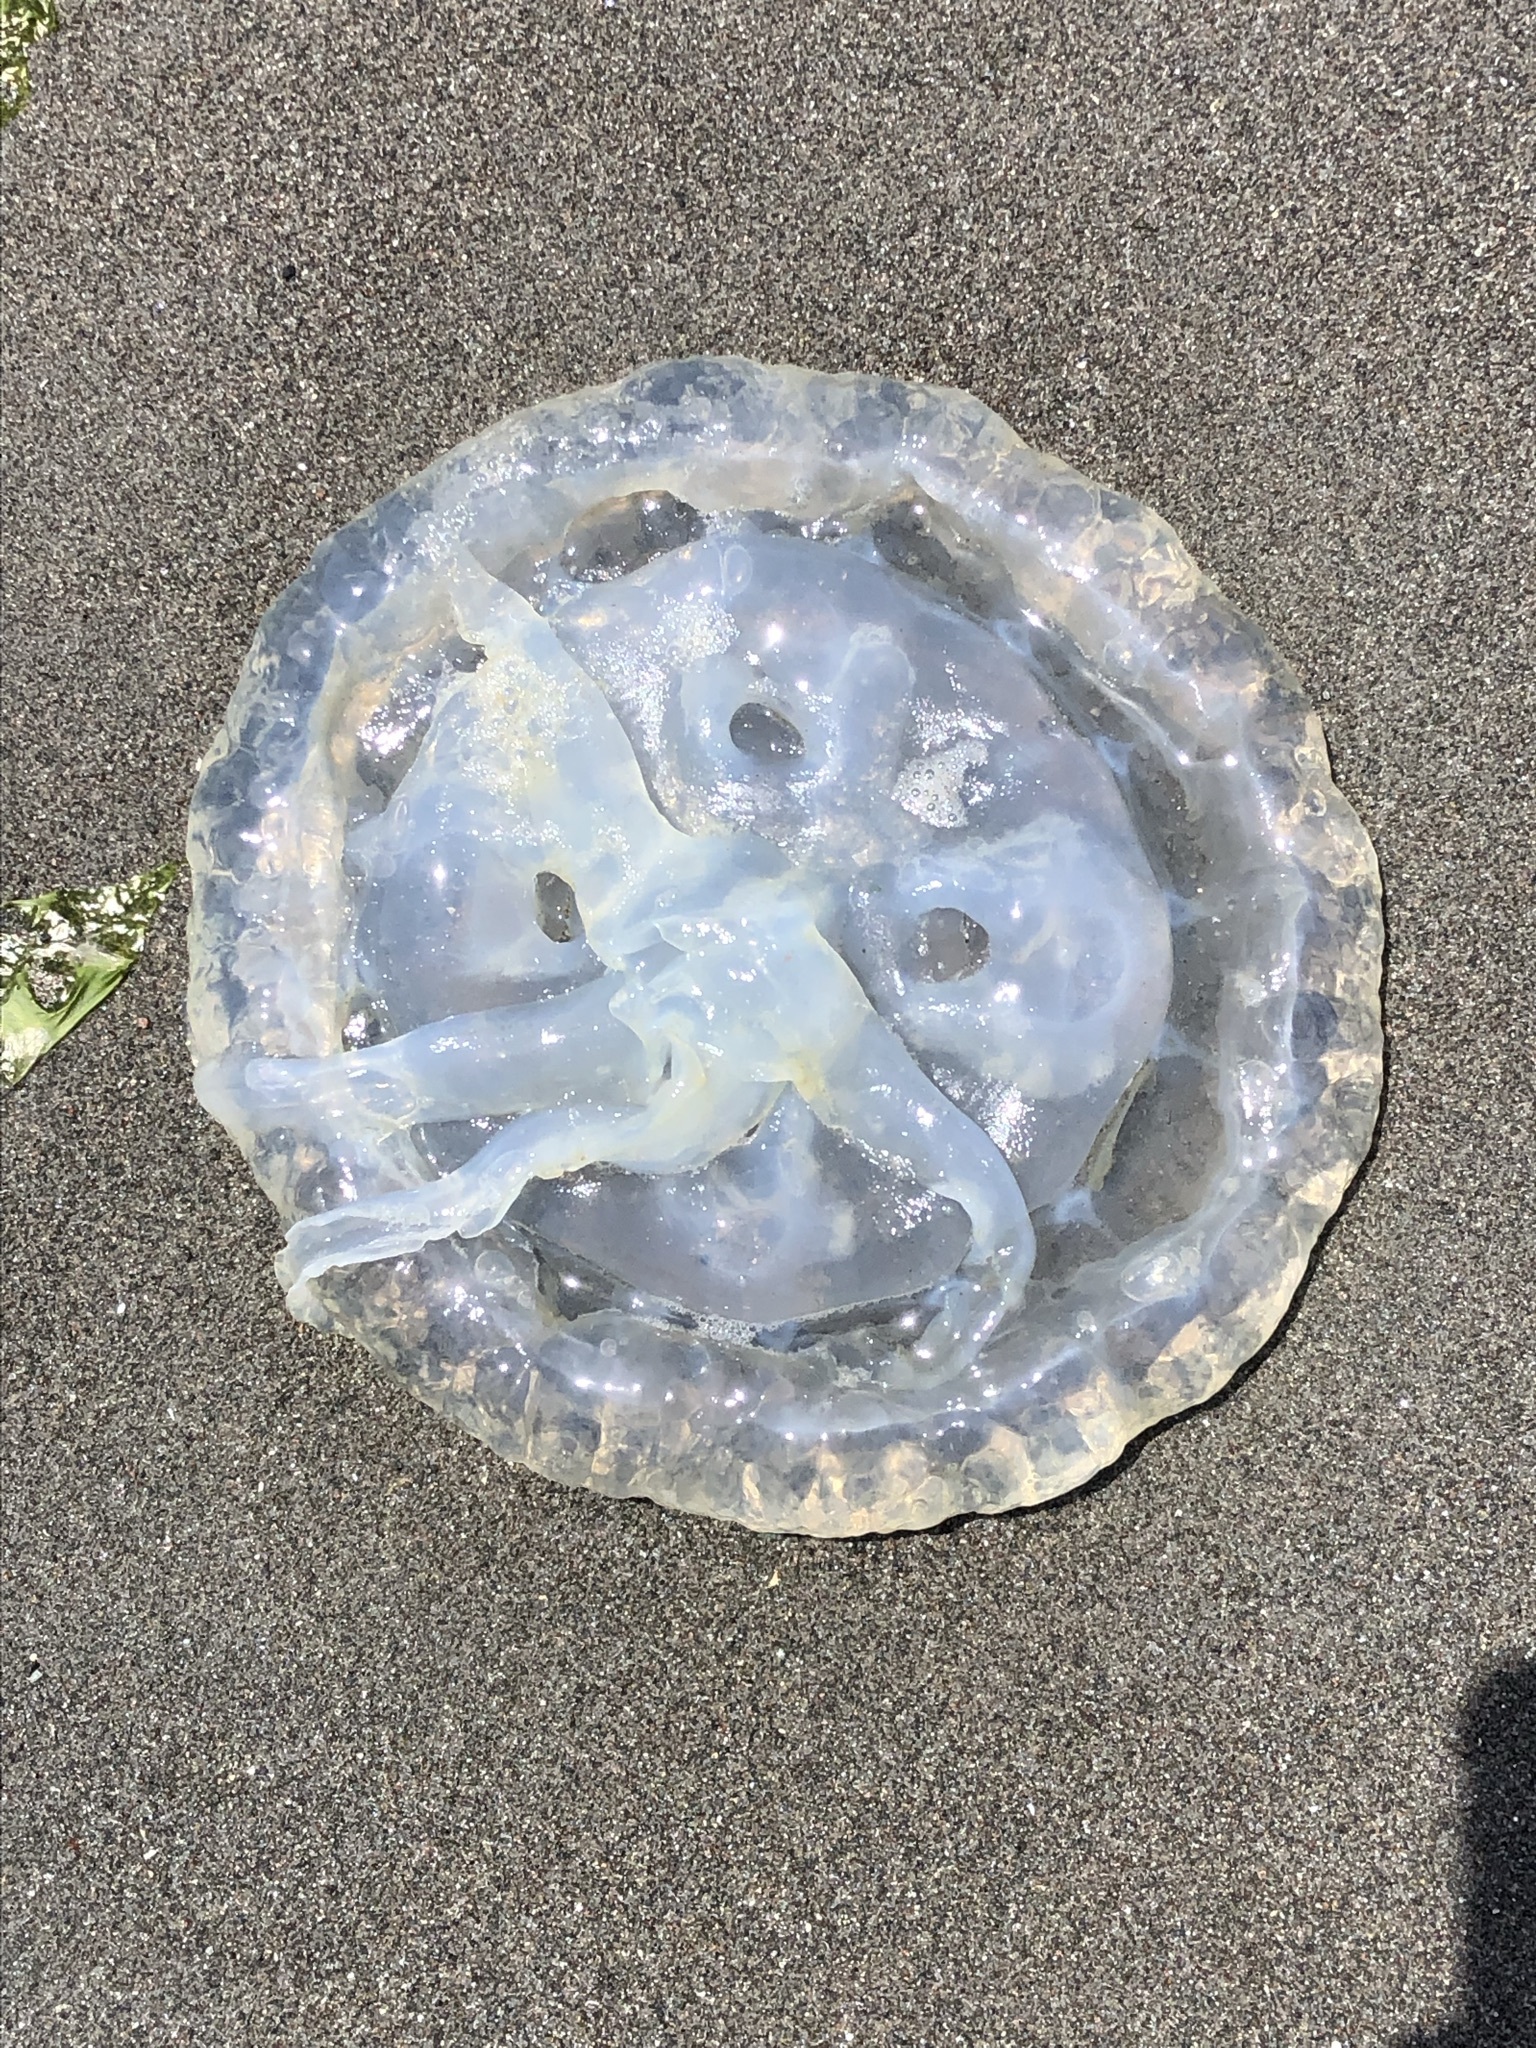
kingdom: Animalia
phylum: Cnidaria
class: Scyphozoa
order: Semaeostomeae
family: Pelagiidae
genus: Chrysaora
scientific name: Chrysaora plocamia
